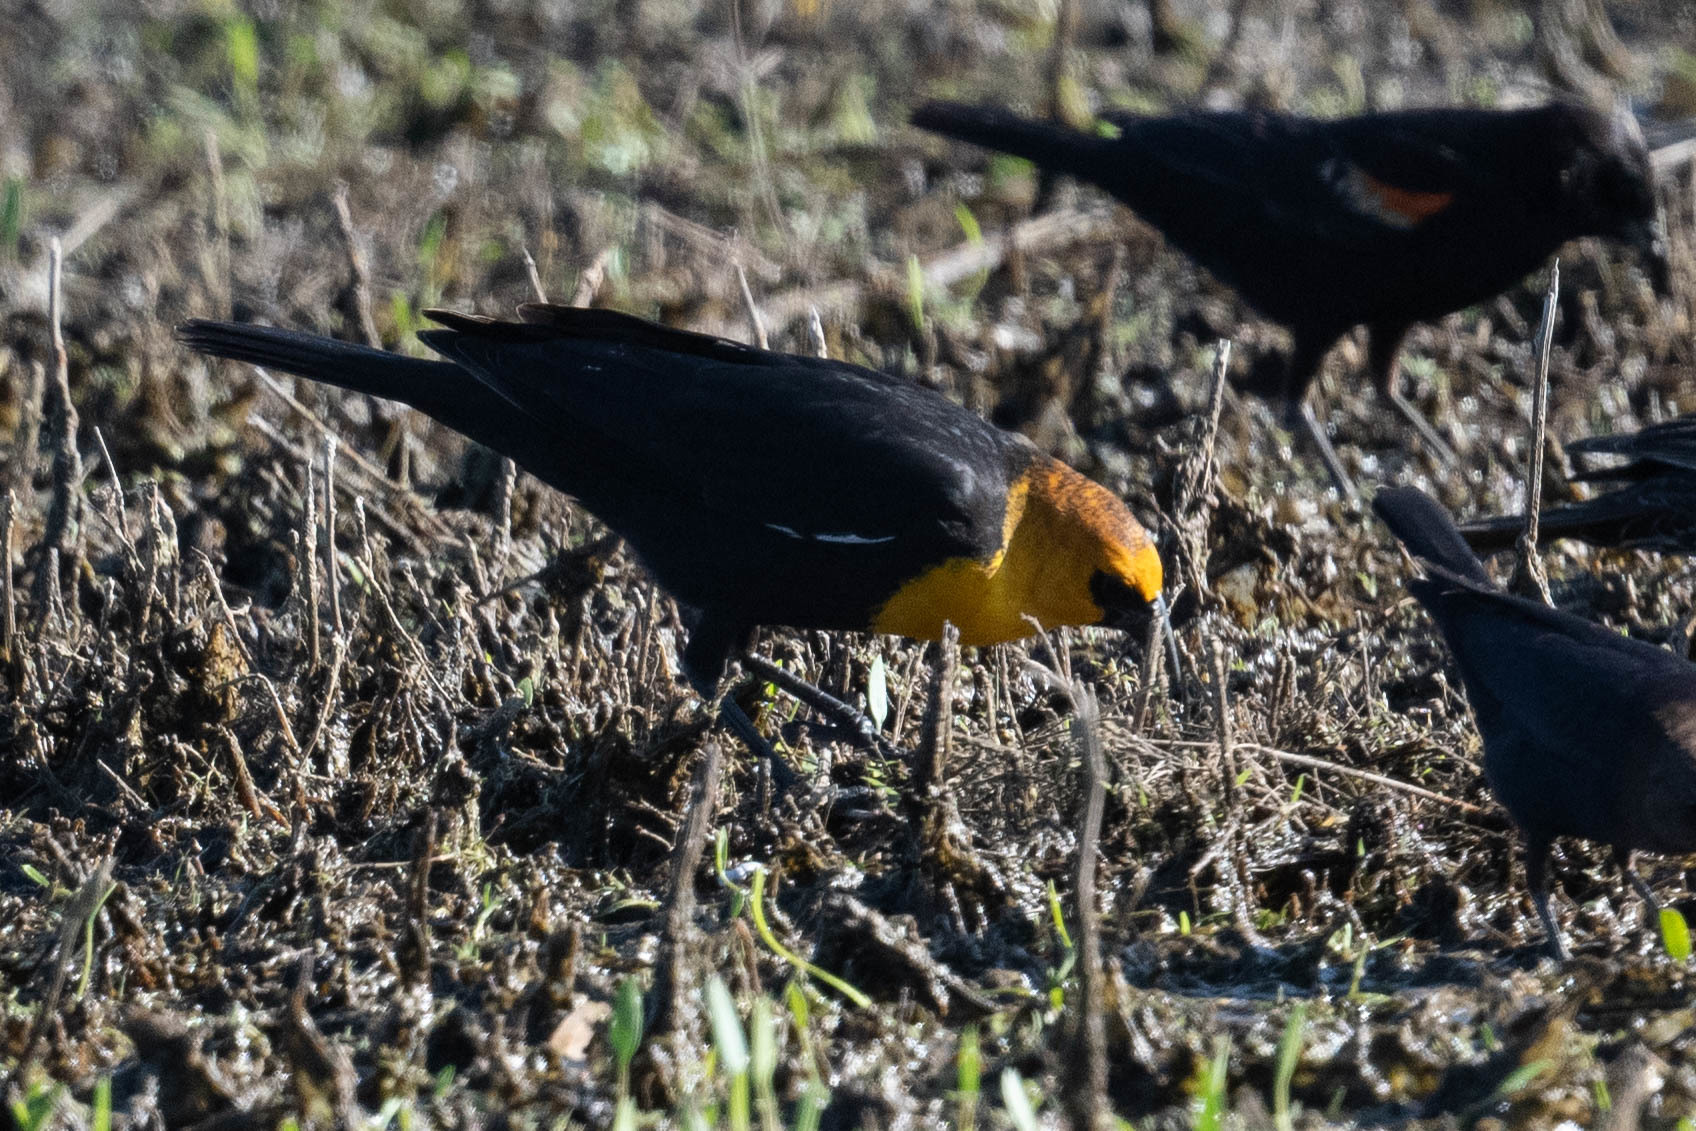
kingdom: Animalia
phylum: Chordata
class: Aves
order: Passeriformes
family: Icteridae
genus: Xanthocephalus
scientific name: Xanthocephalus xanthocephalus
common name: Yellow-headed blackbird
